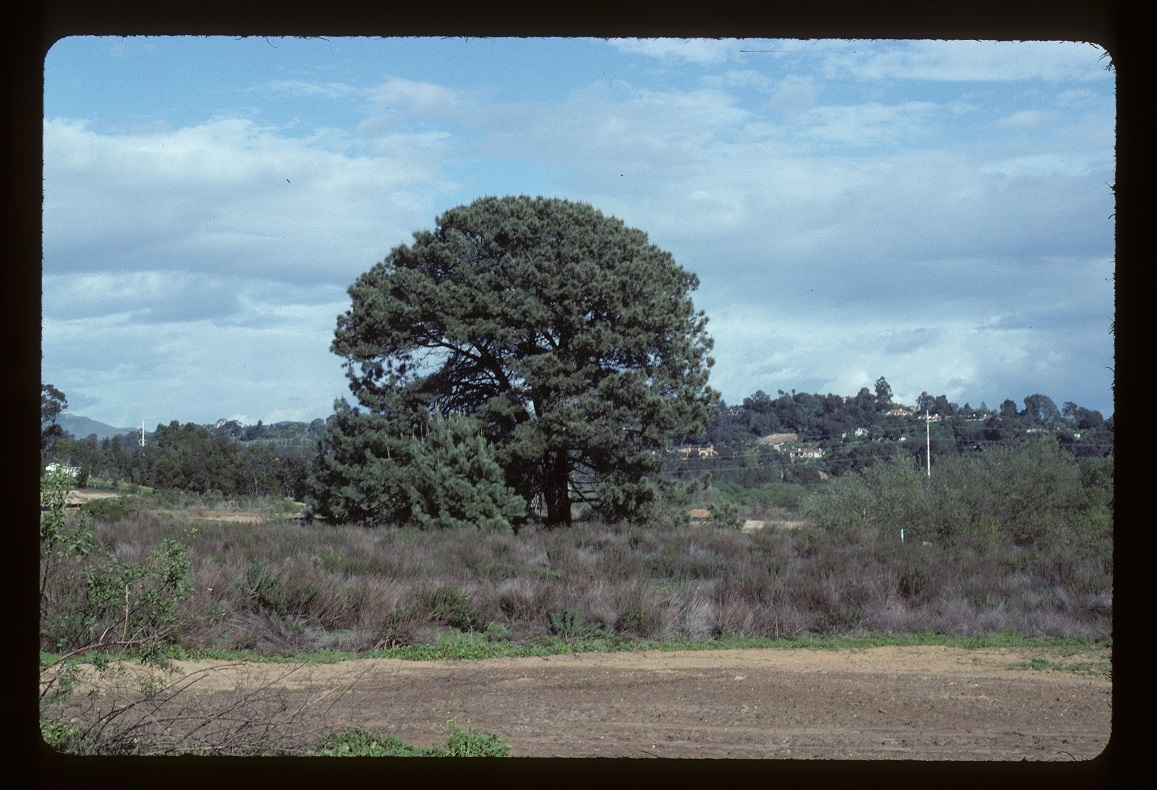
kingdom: Plantae
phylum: Tracheophyta
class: Pinopsida
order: Pinales
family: Pinaceae
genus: Pinus
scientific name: Pinus torreyana
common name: Torrey pine
